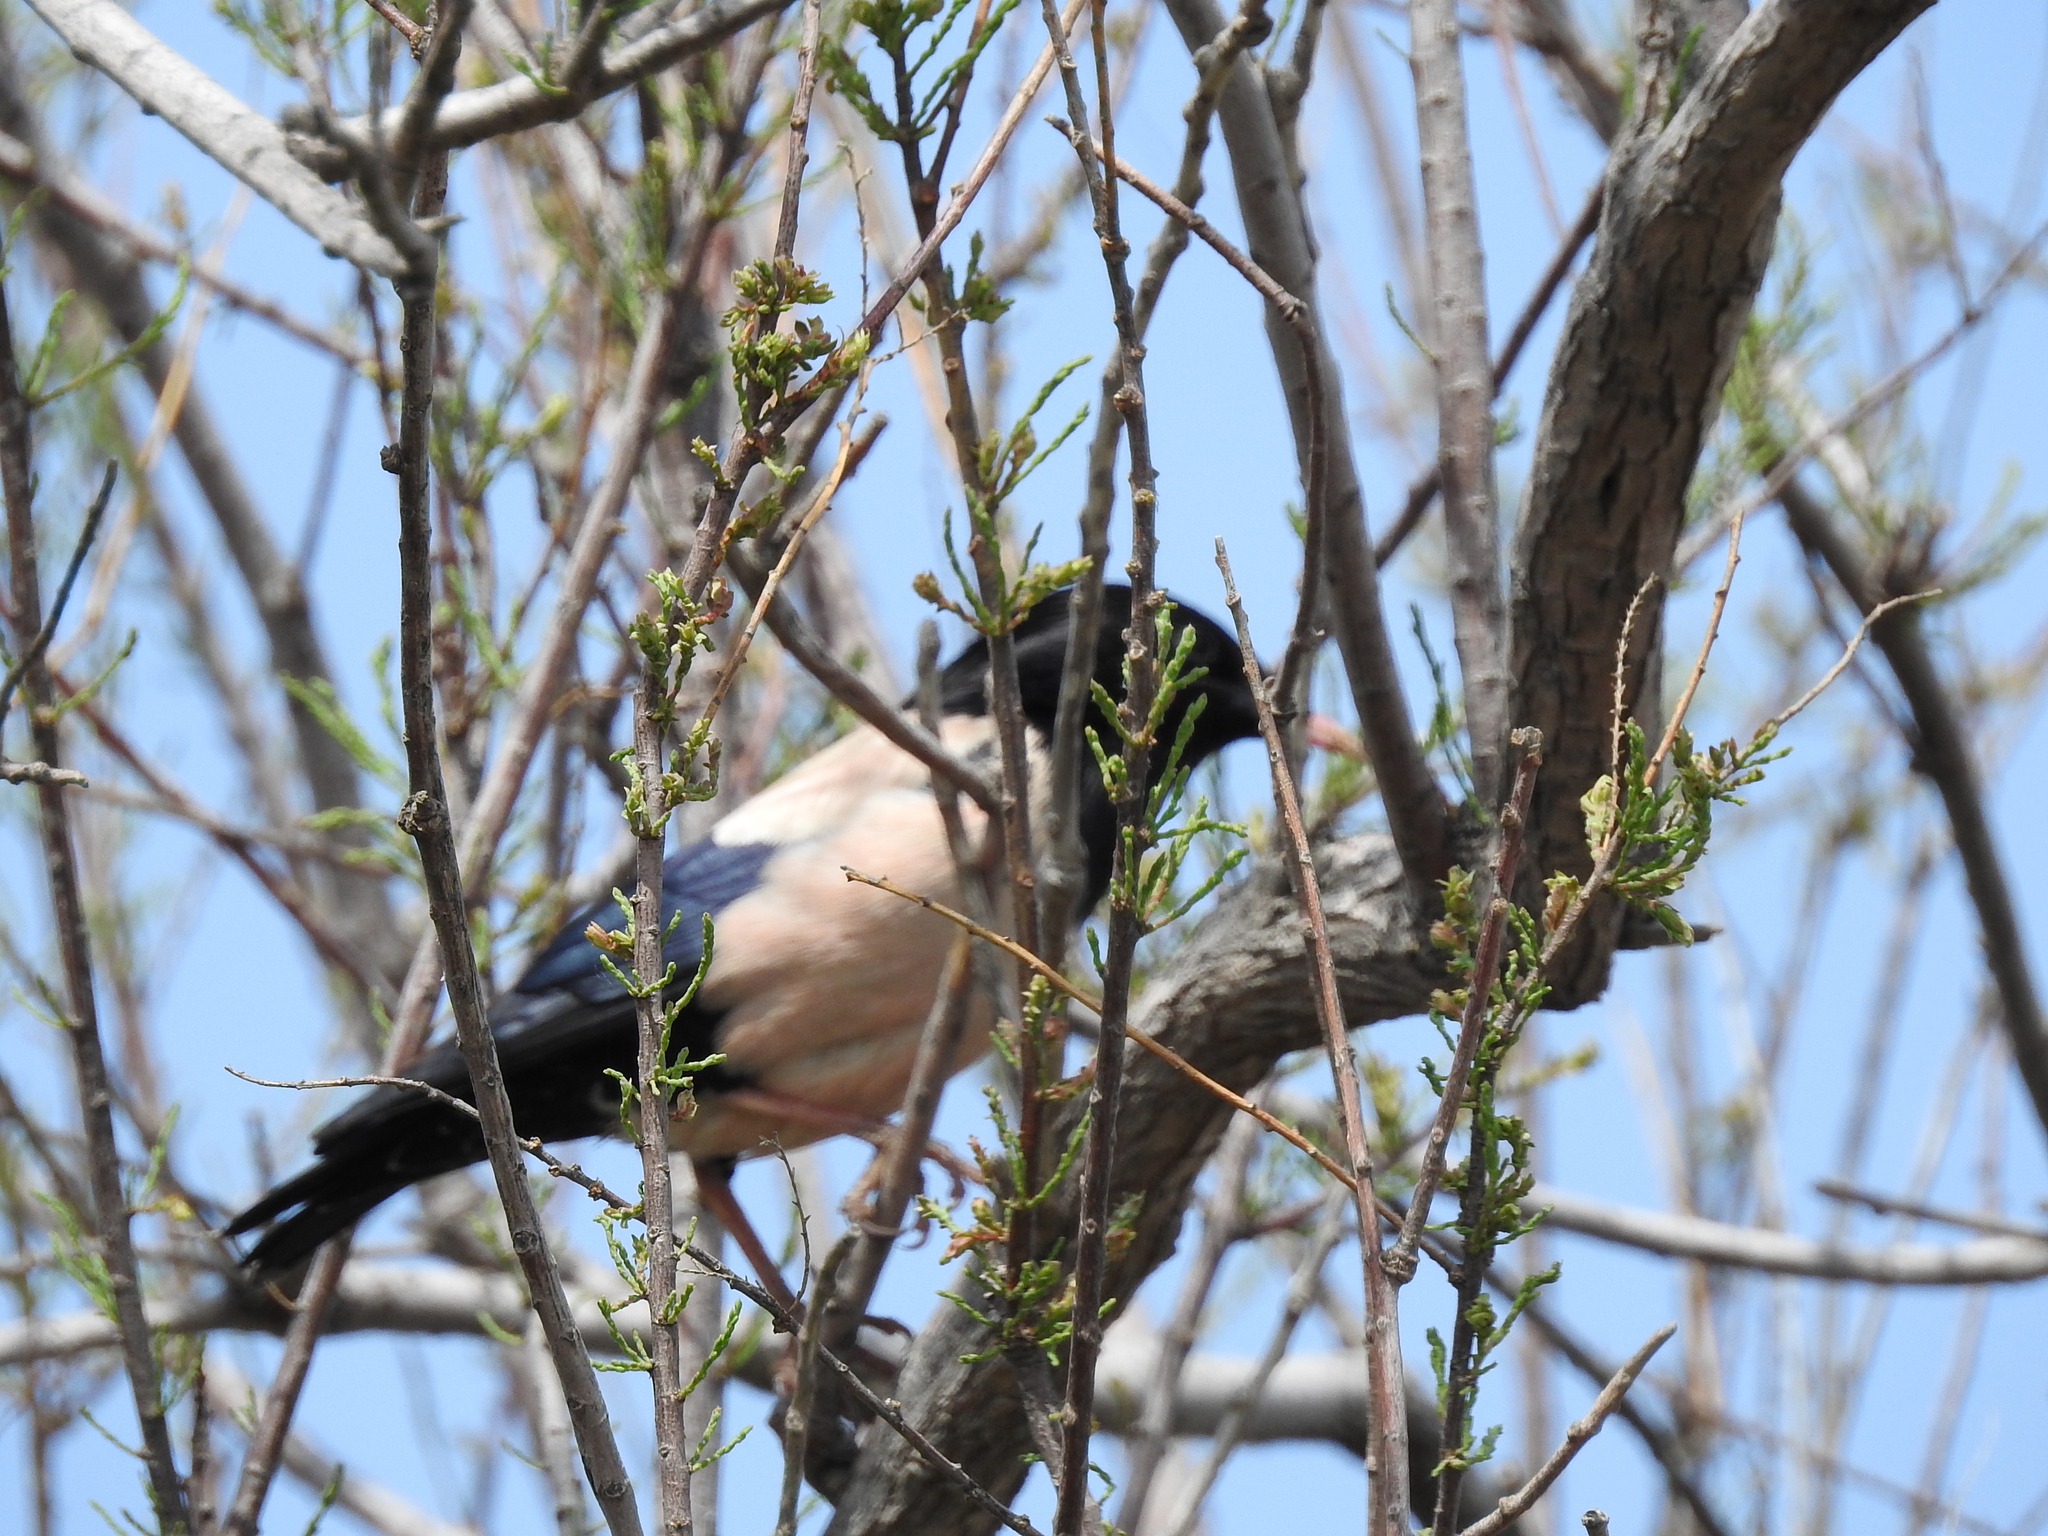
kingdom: Animalia
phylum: Chordata
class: Aves
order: Passeriformes
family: Sturnidae
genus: Pastor
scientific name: Pastor roseus
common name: Rosy starling
